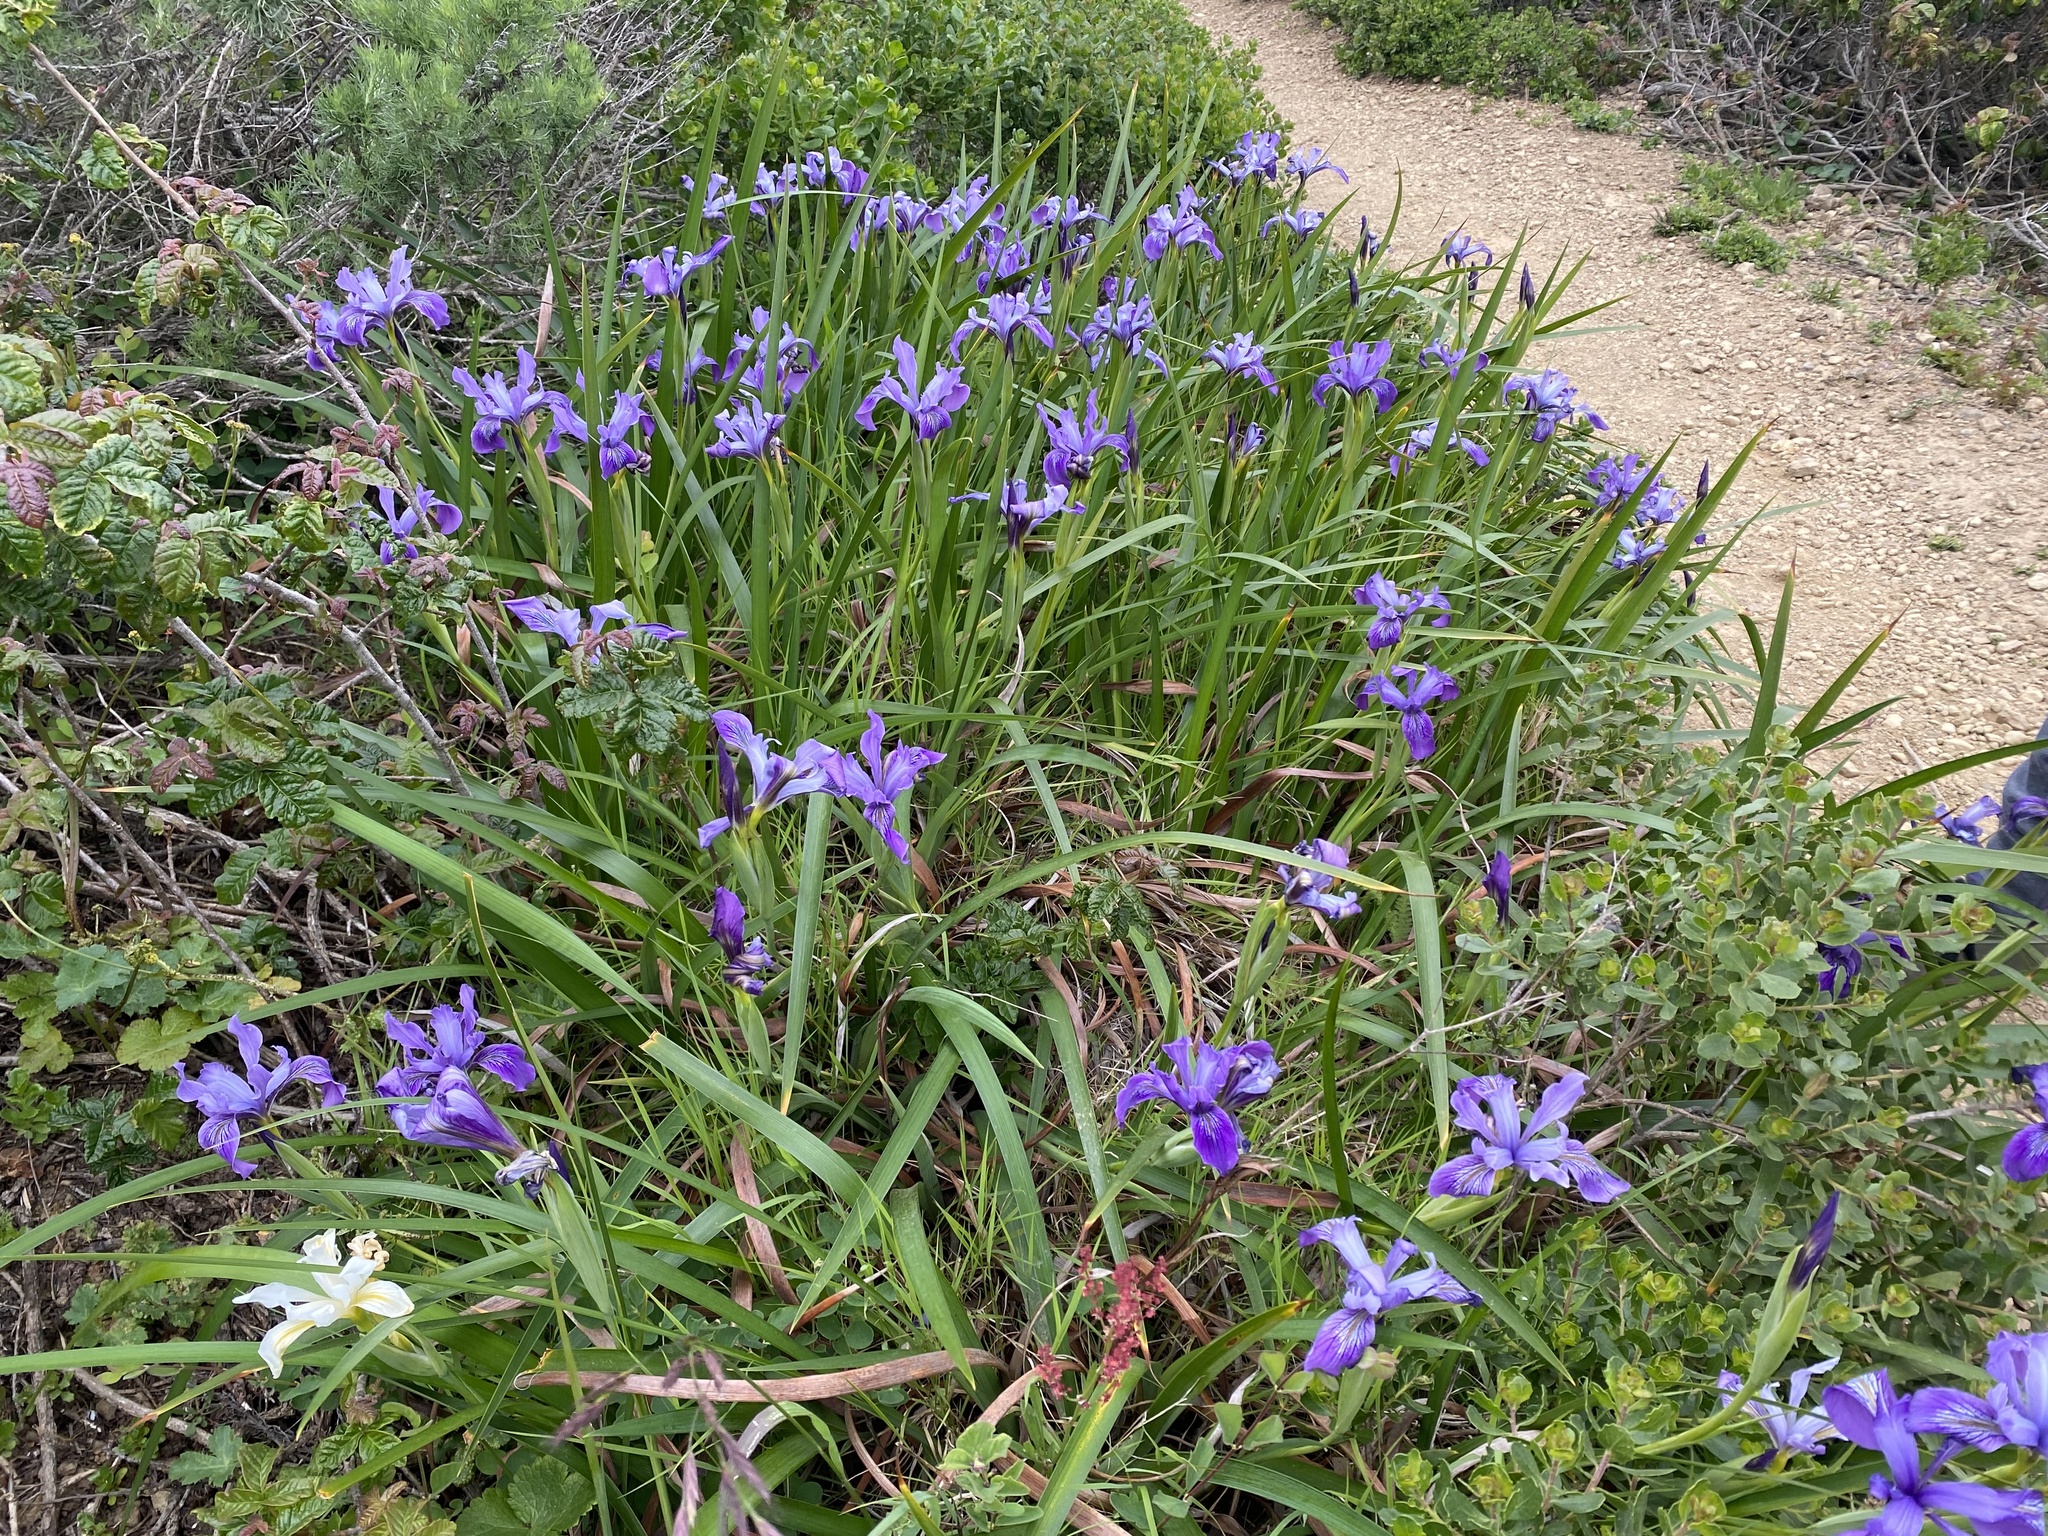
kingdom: Plantae
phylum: Tracheophyta
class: Liliopsida
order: Asparagales
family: Iridaceae
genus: Iris
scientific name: Iris douglasiana
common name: Marin iris
